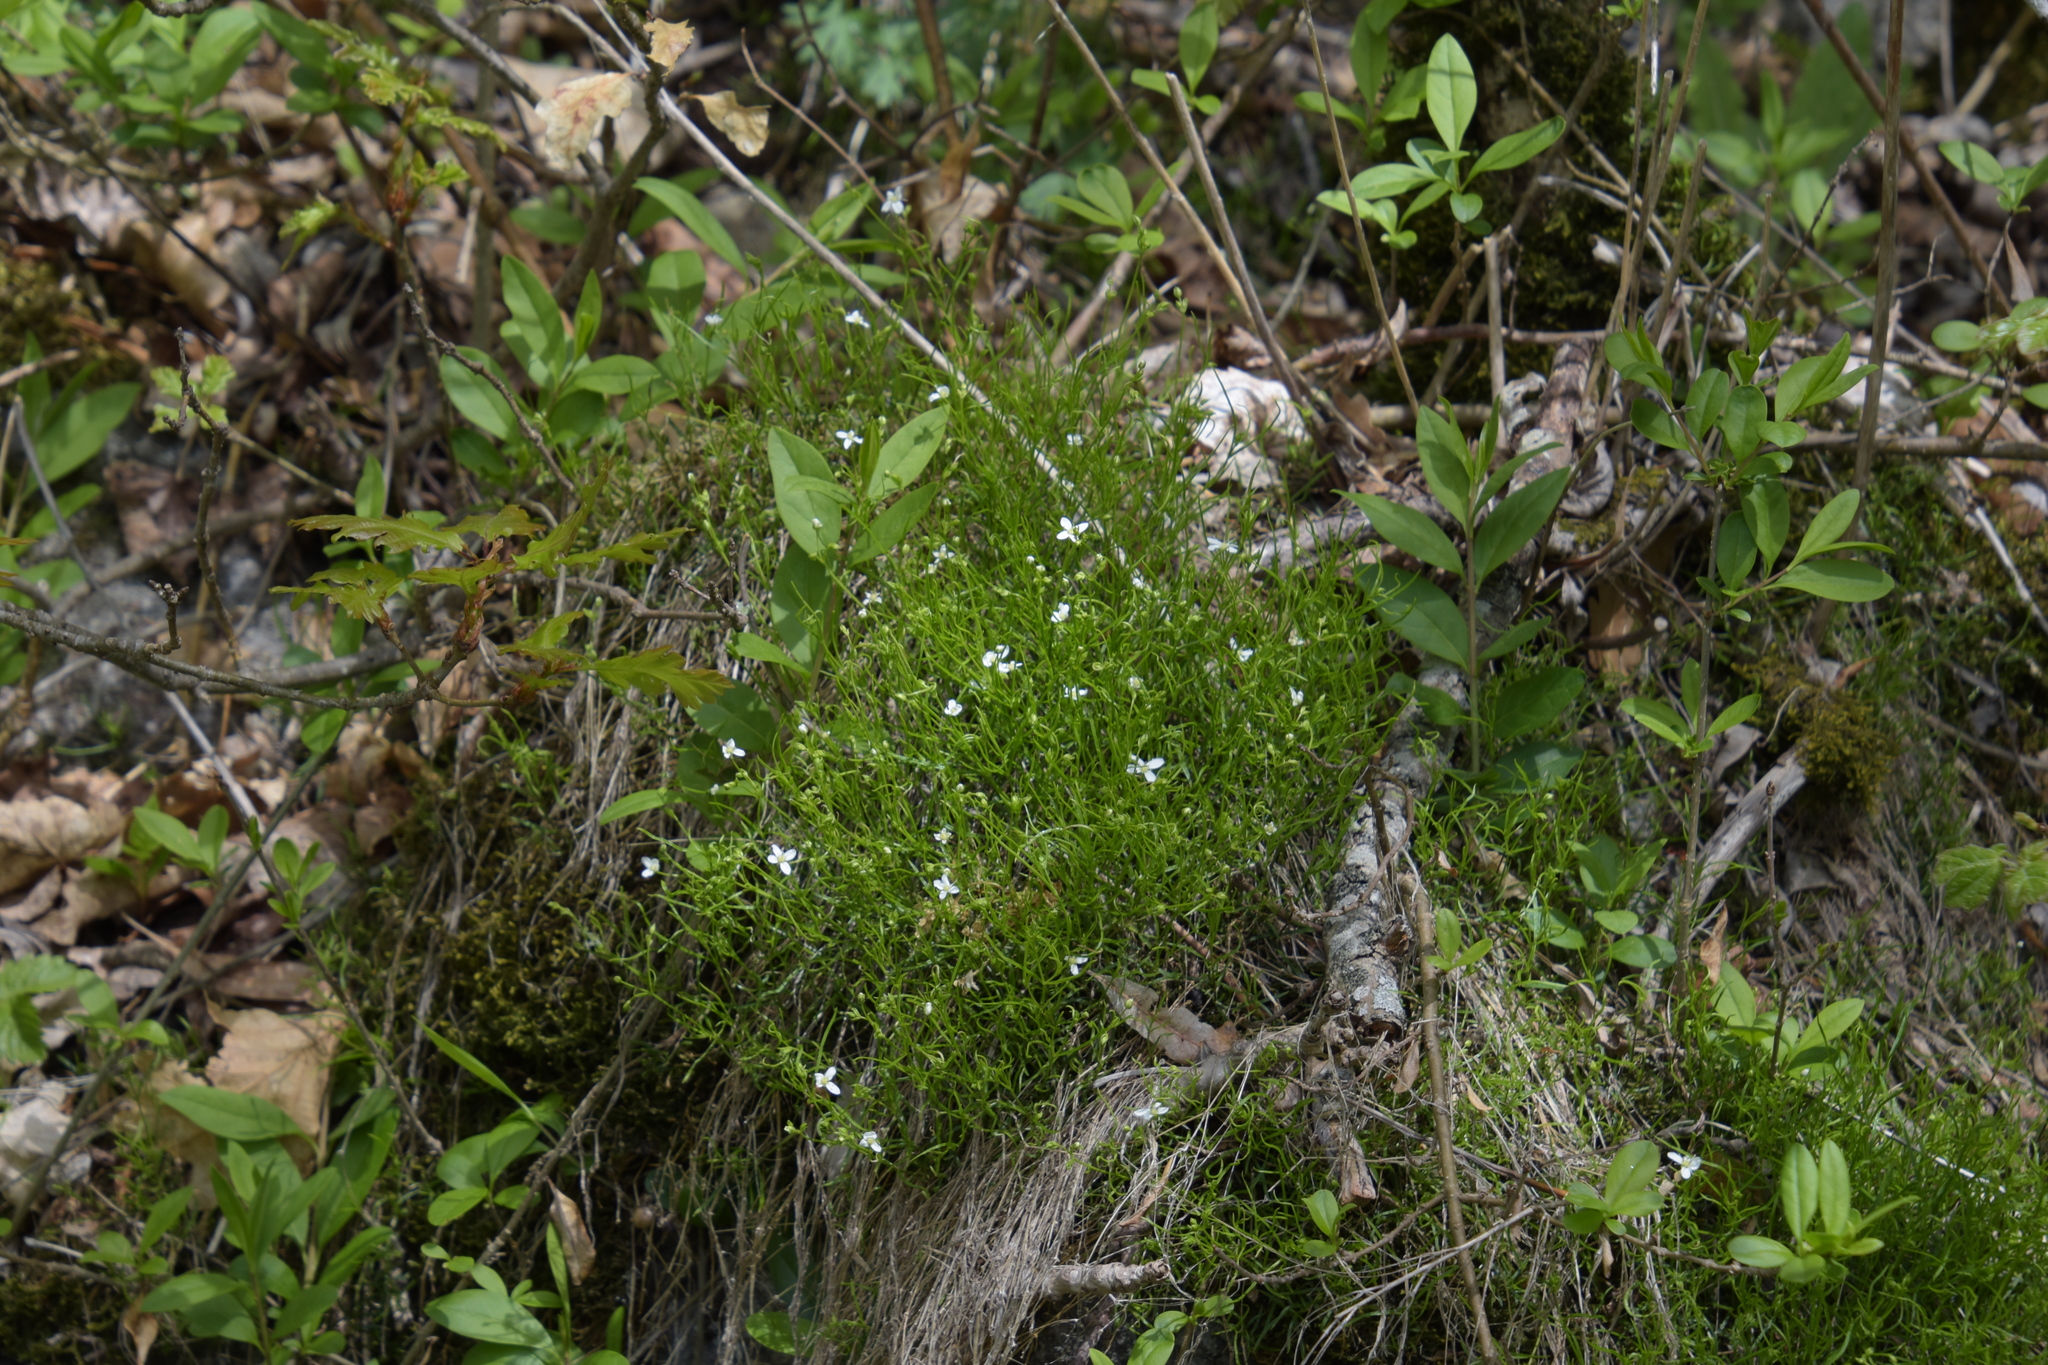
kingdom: Plantae
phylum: Tracheophyta
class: Magnoliopsida
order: Caryophyllales
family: Caryophyllaceae
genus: Moehringia
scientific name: Moehringia muscosa
